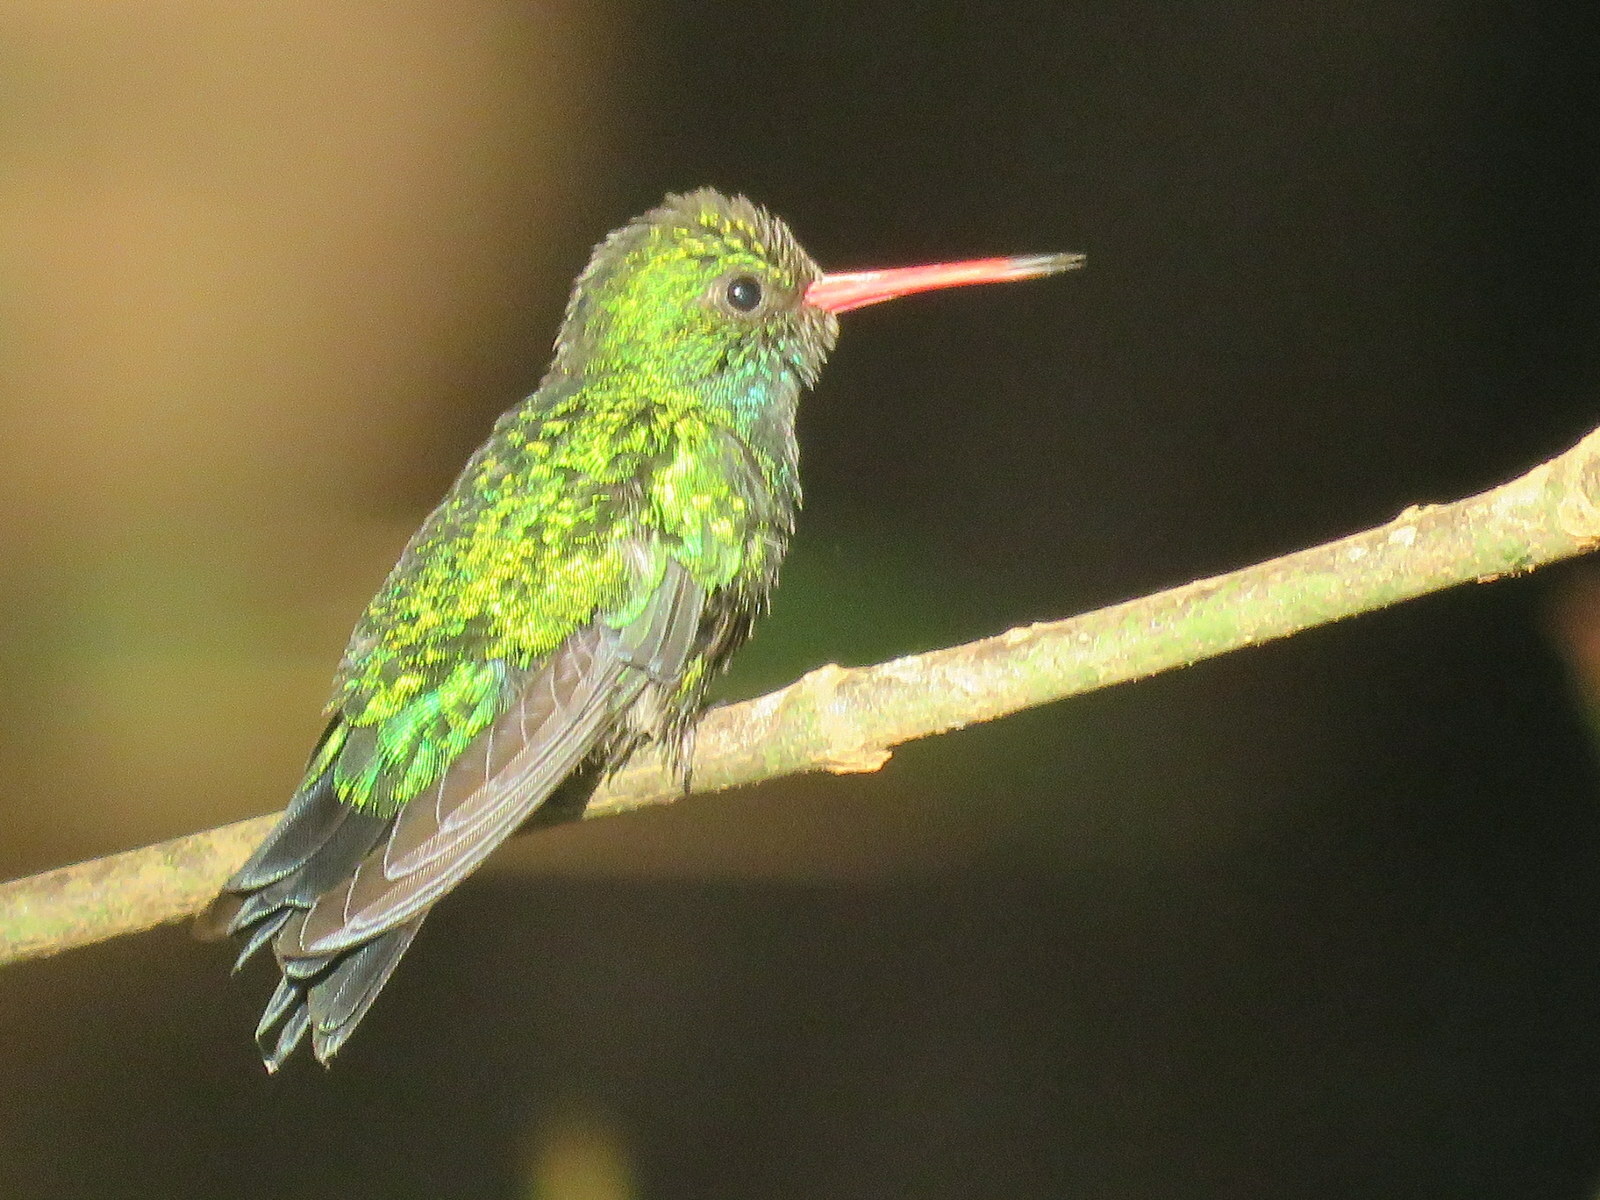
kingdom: Animalia
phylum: Chordata
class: Aves
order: Apodiformes
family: Trochilidae
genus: Chlorostilbon
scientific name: Chlorostilbon lucidus
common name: Glittering-bellied emerald
